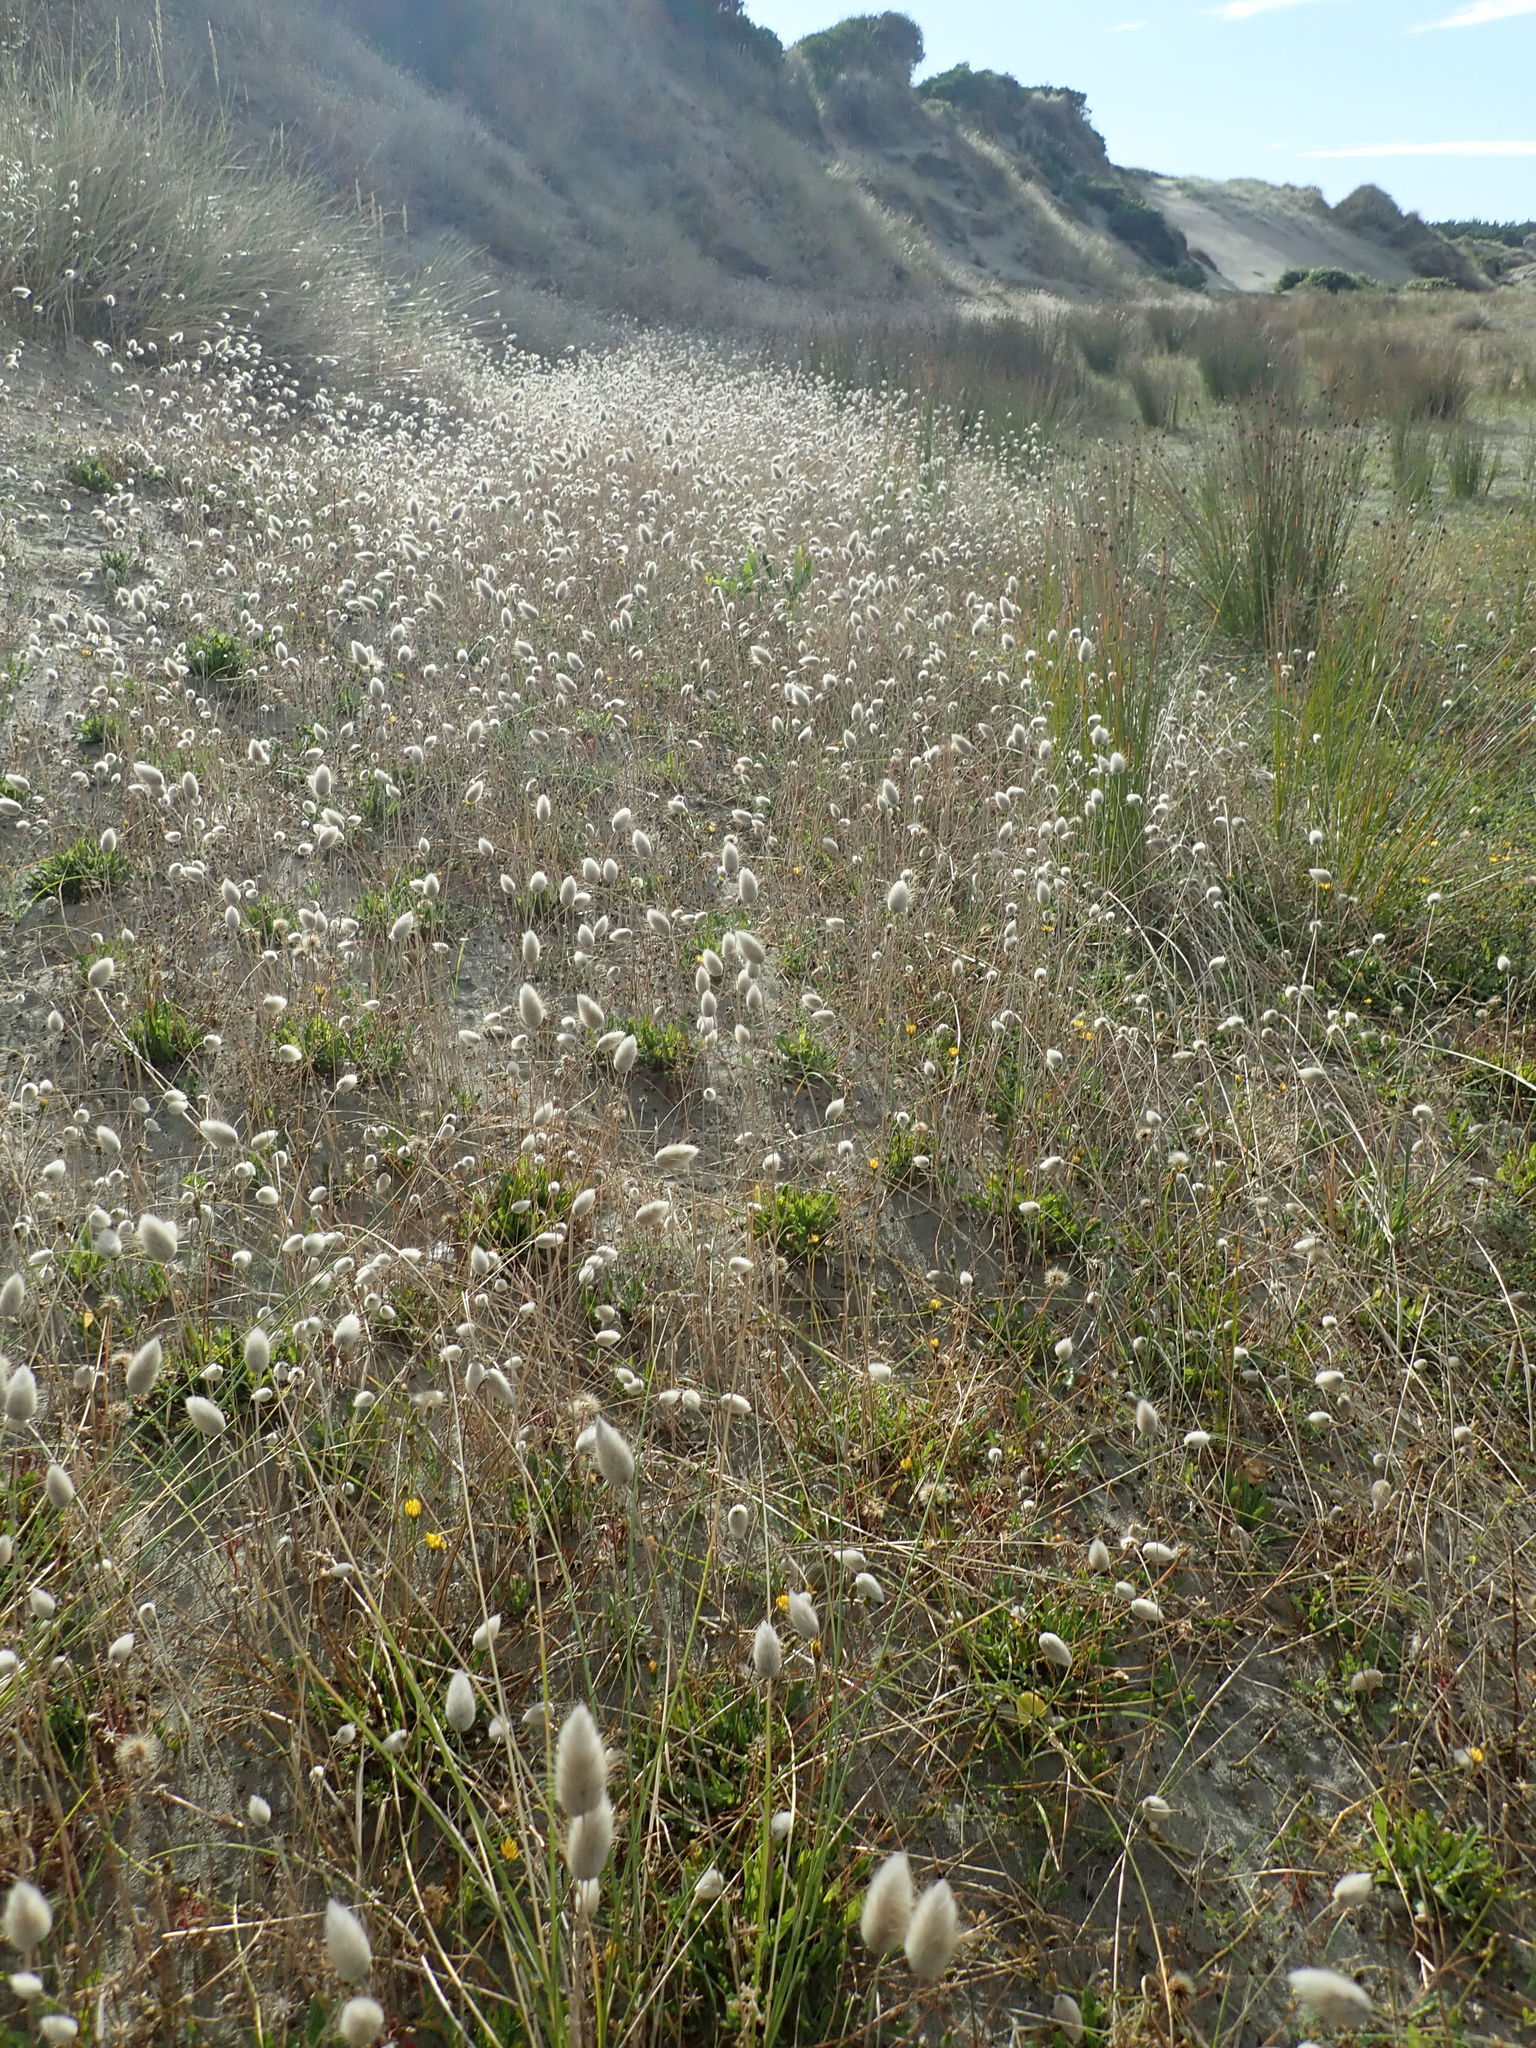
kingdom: Plantae
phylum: Tracheophyta
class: Liliopsida
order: Poales
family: Poaceae
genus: Lagurus
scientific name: Lagurus ovatus
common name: Hare's-tail
